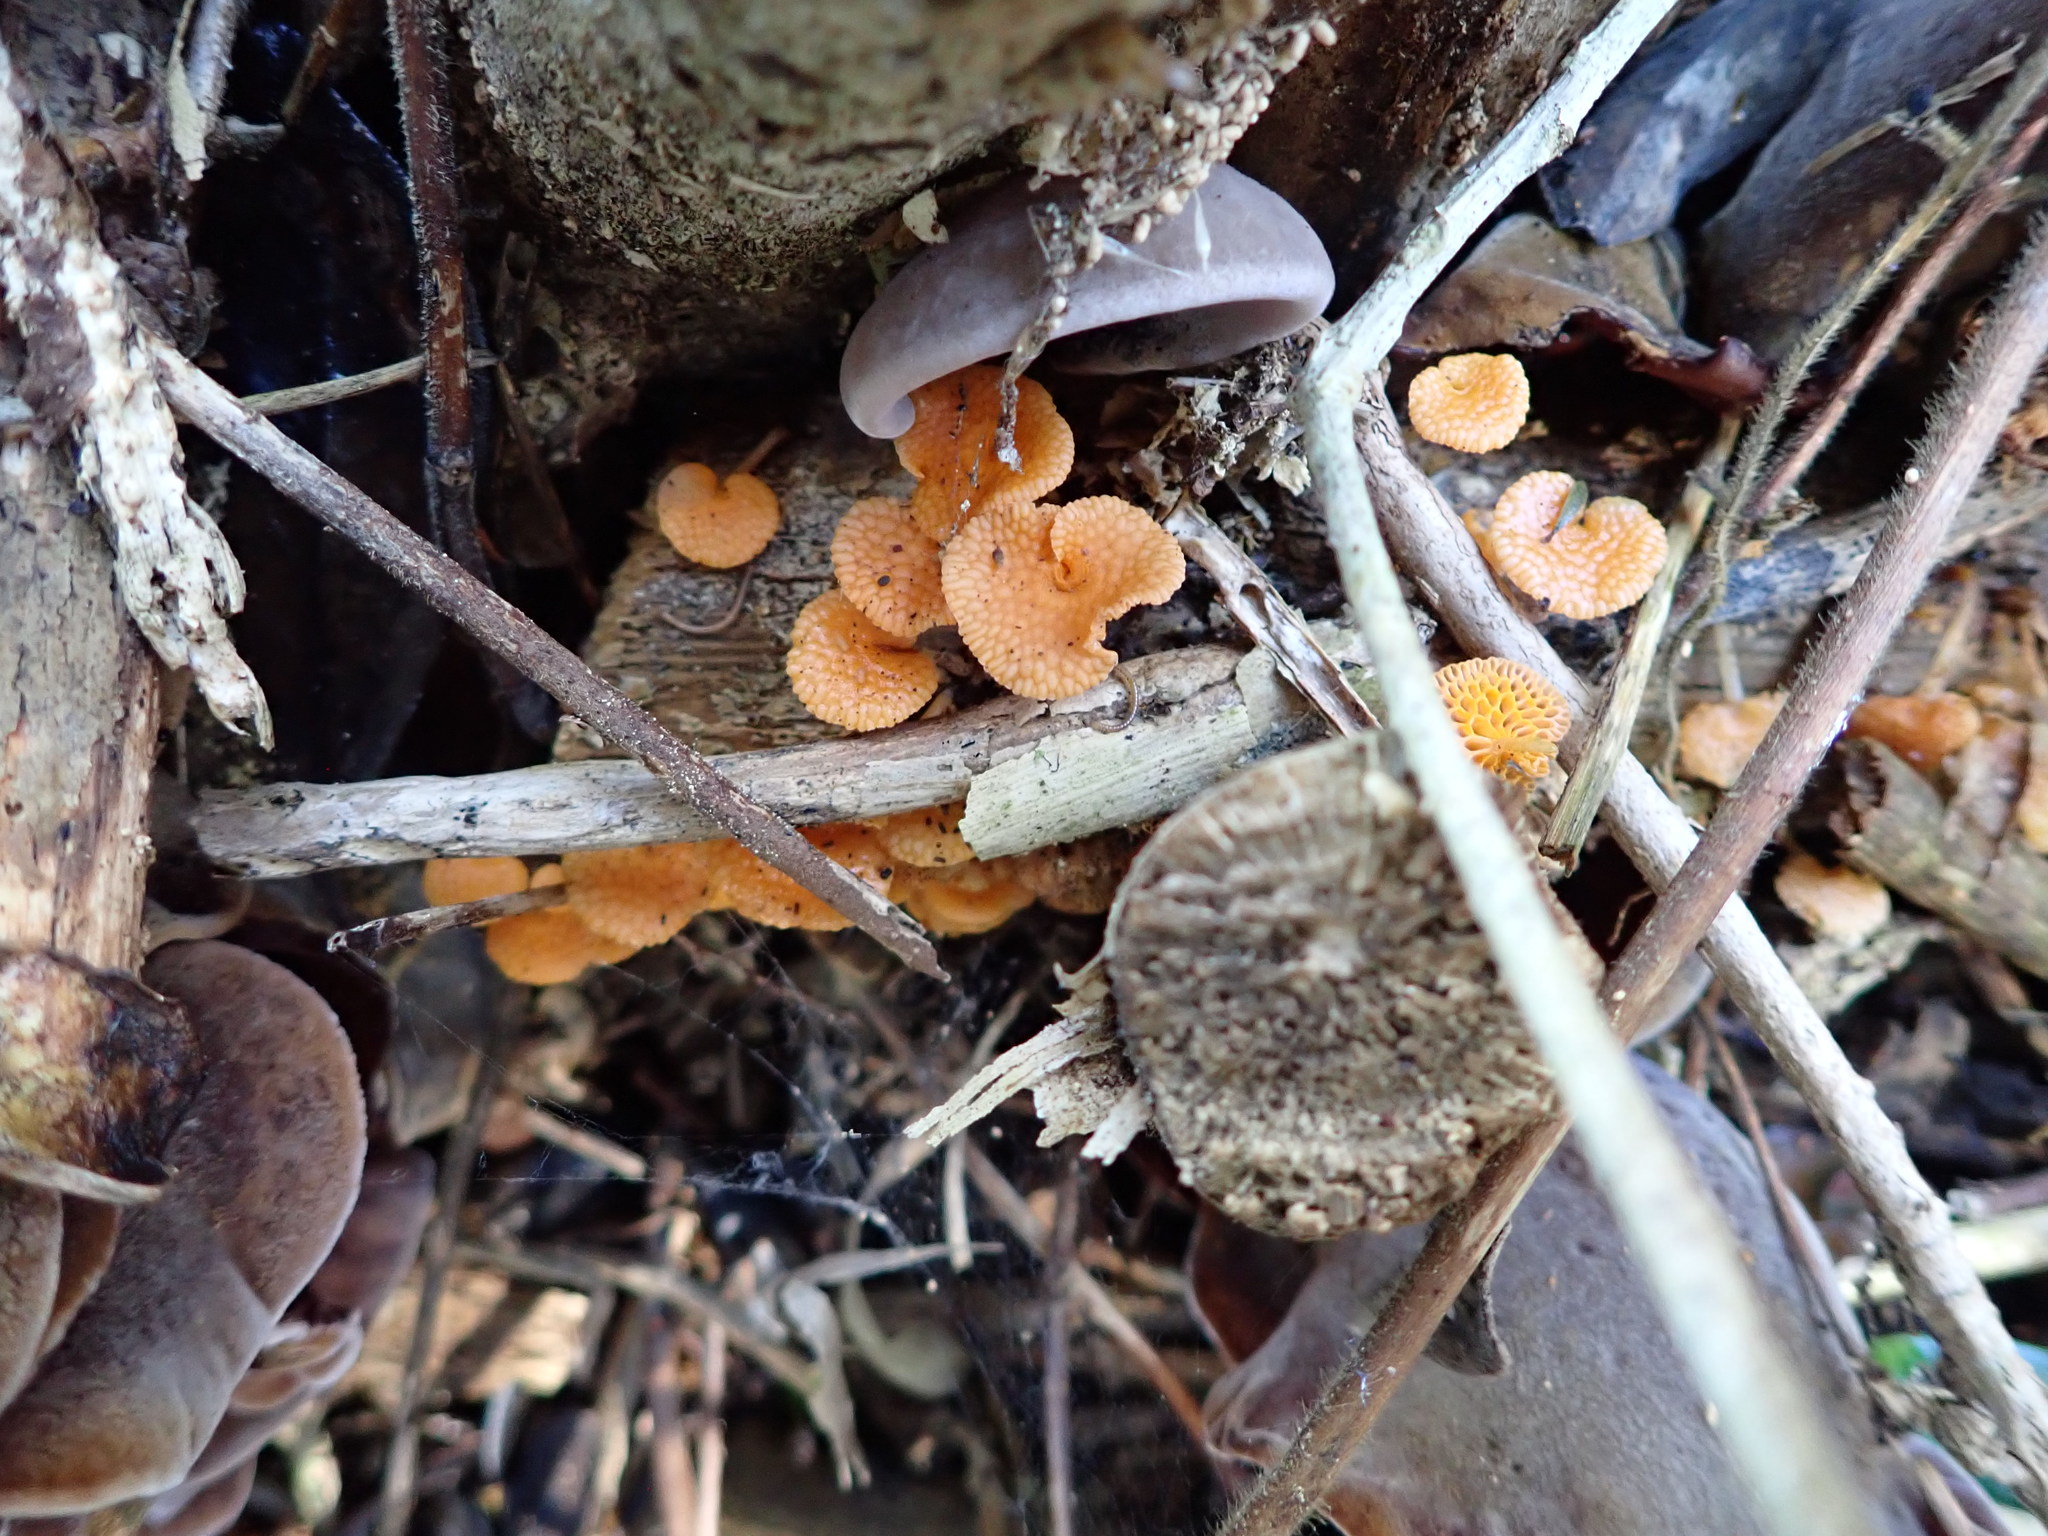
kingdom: Fungi
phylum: Basidiomycota
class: Agaricomycetes
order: Agaricales
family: Mycenaceae
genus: Favolaschia
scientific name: Favolaschia claudopus
